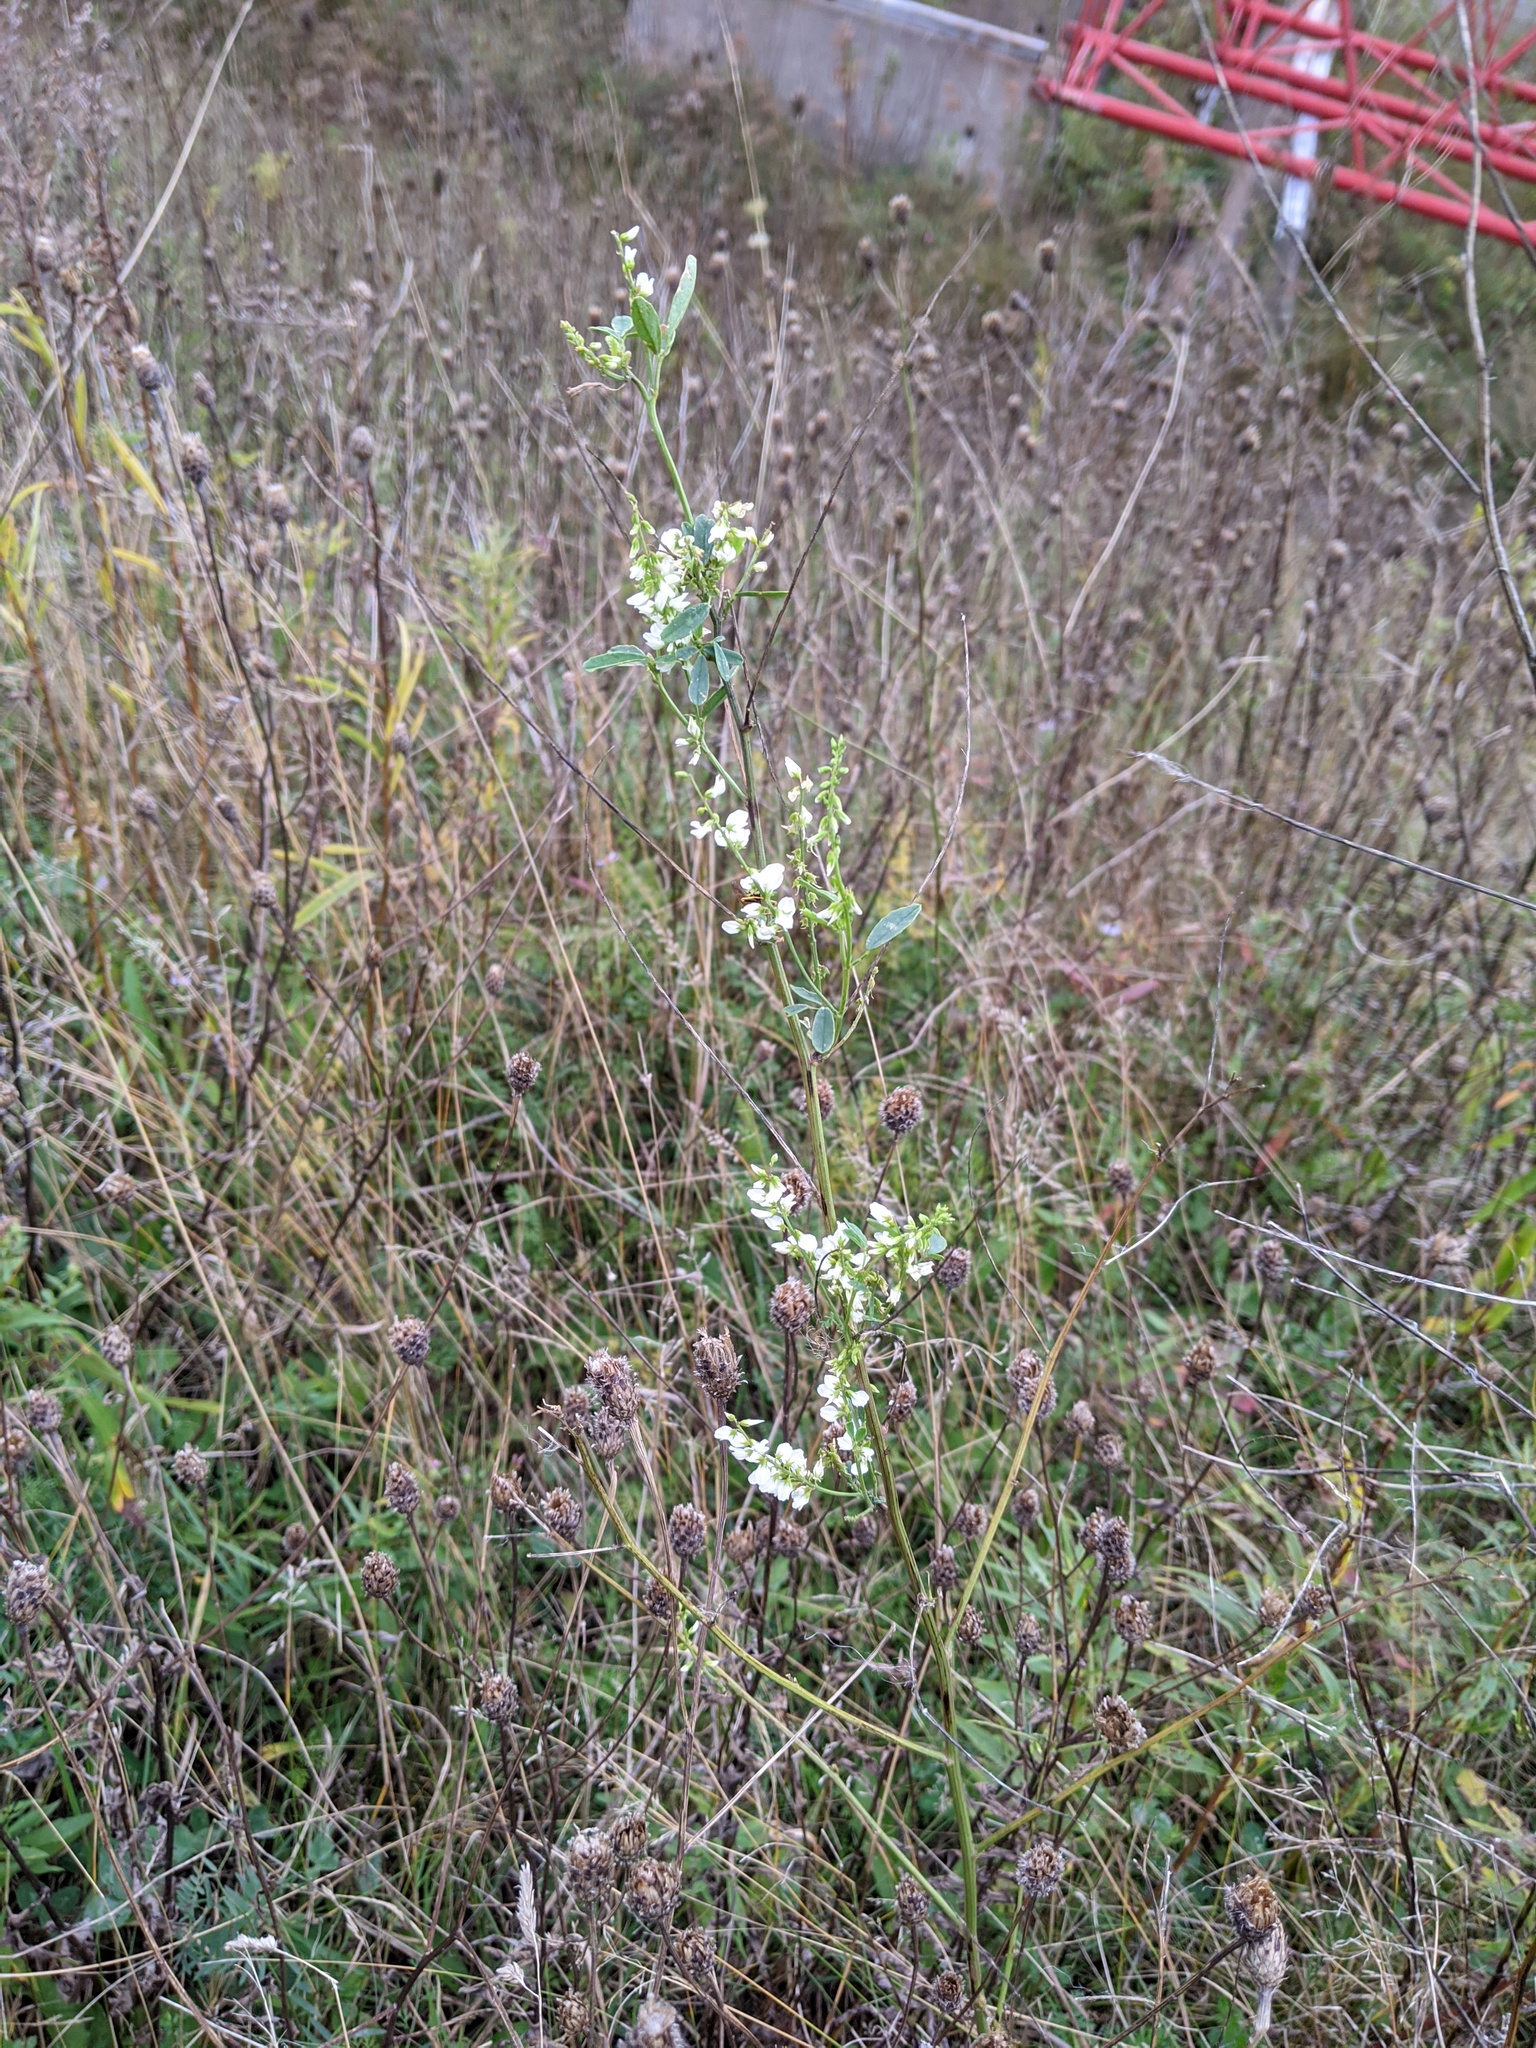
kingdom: Plantae
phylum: Tracheophyta
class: Magnoliopsida
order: Fabales
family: Fabaceae
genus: Melilotus
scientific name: Melilotus albus
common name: White melilot
